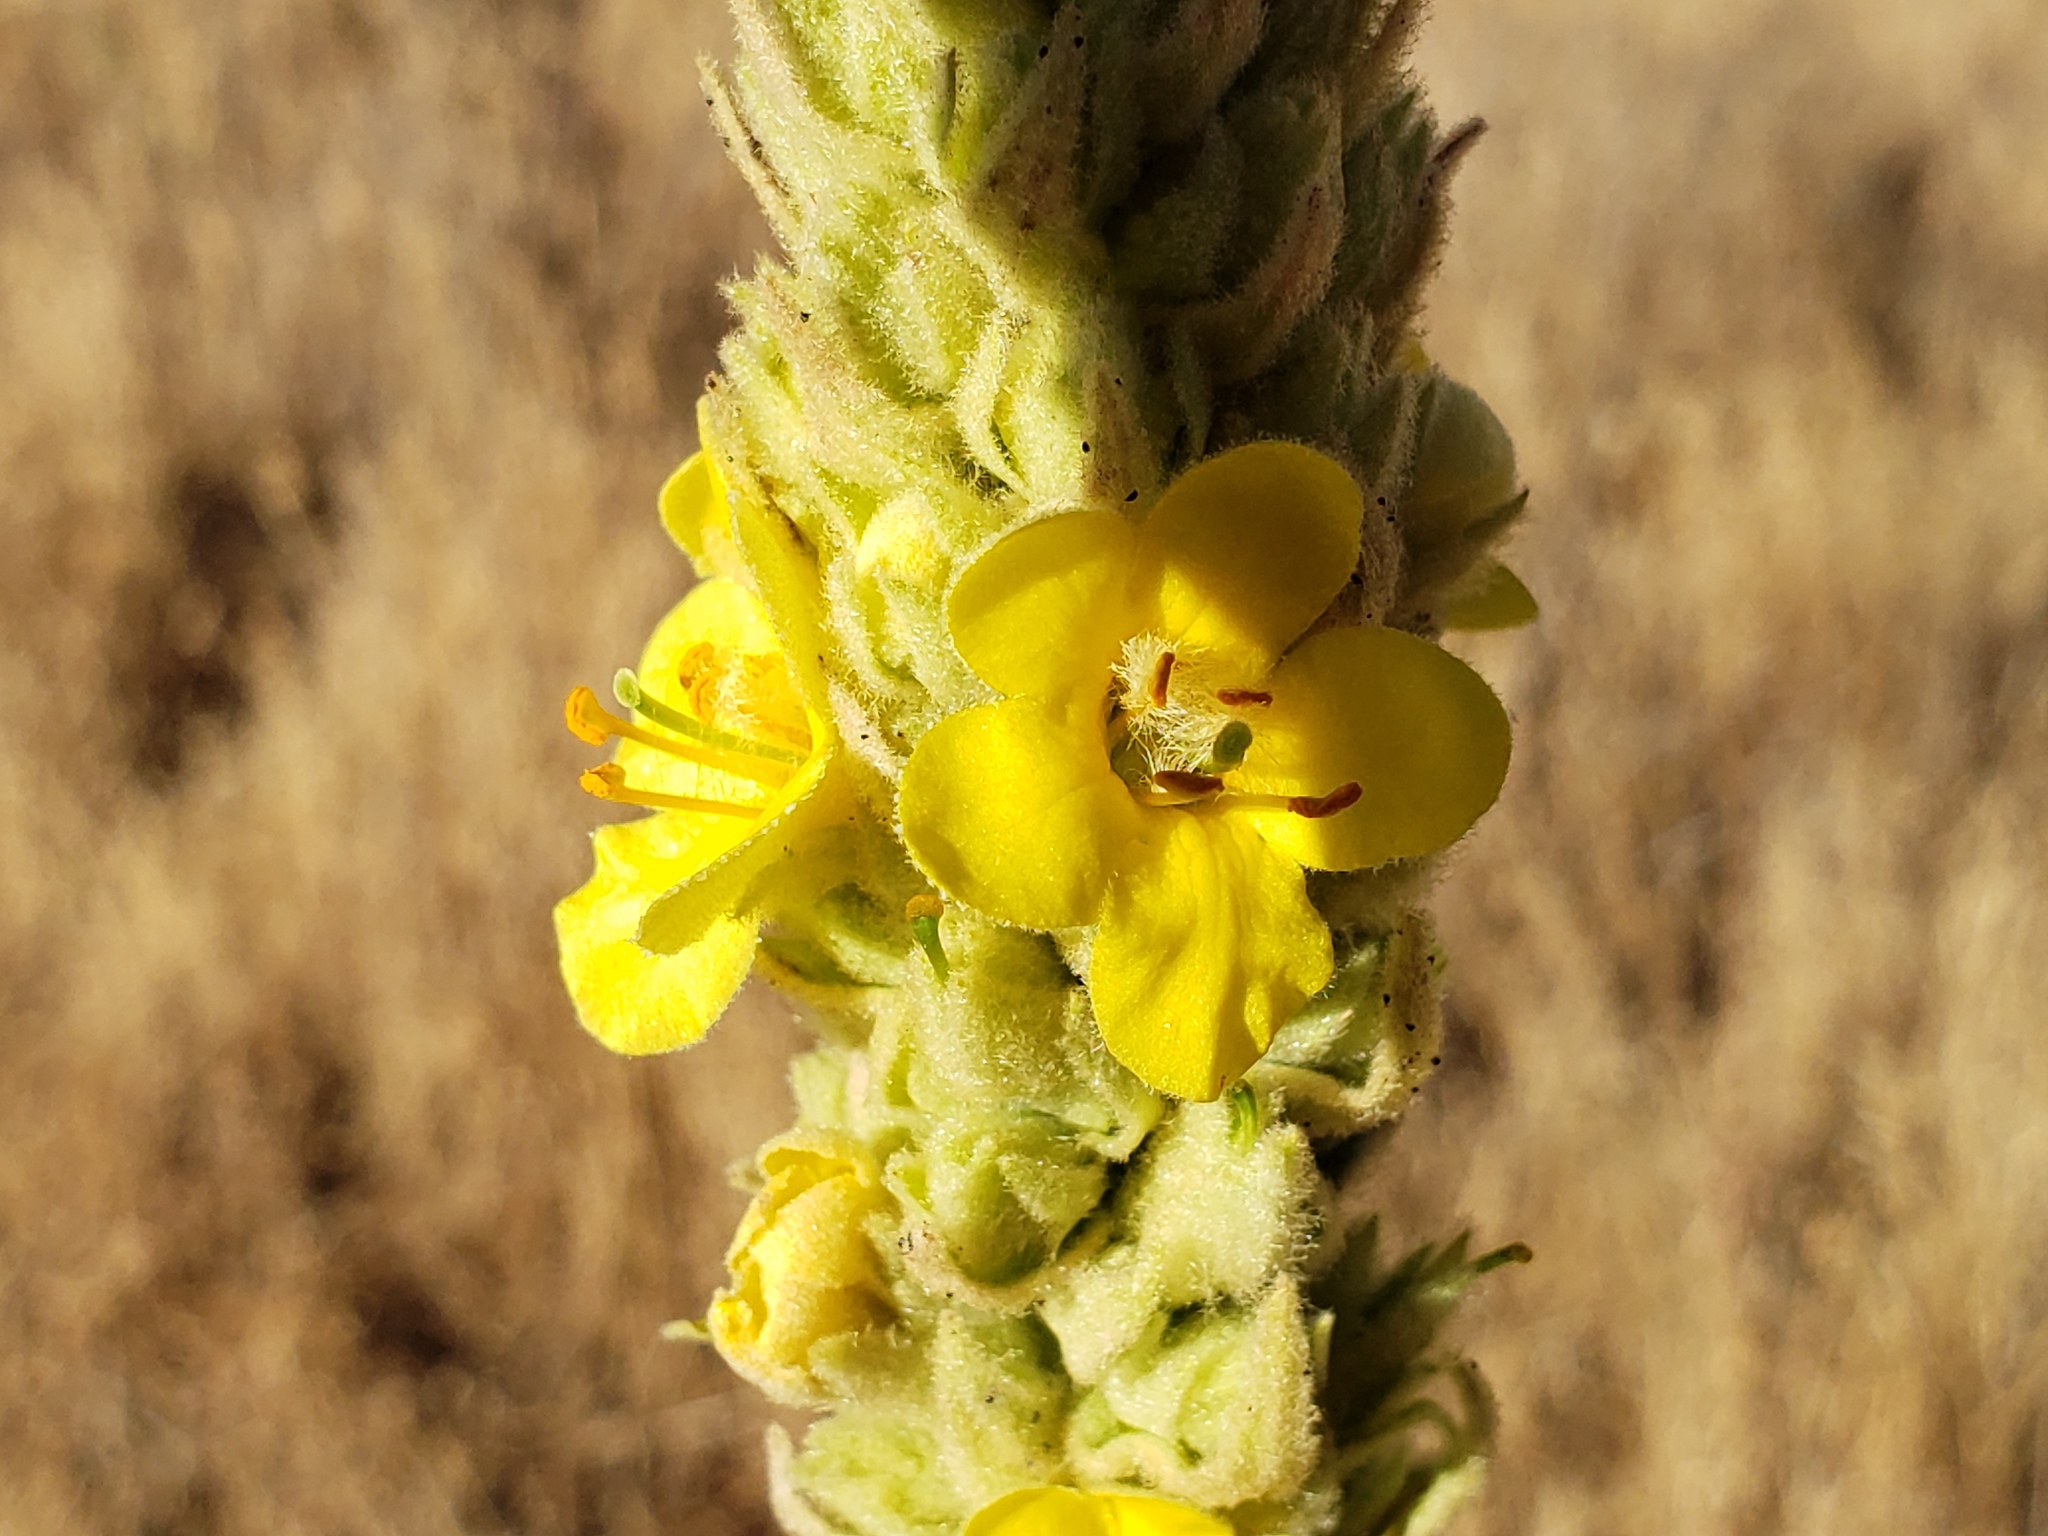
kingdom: Plantae
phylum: Tracheophyta
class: Magnoliopsida
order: Lamiales
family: Scrophulariaceae
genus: Verbascum
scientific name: Verbascum thapsus
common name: Common mullein
